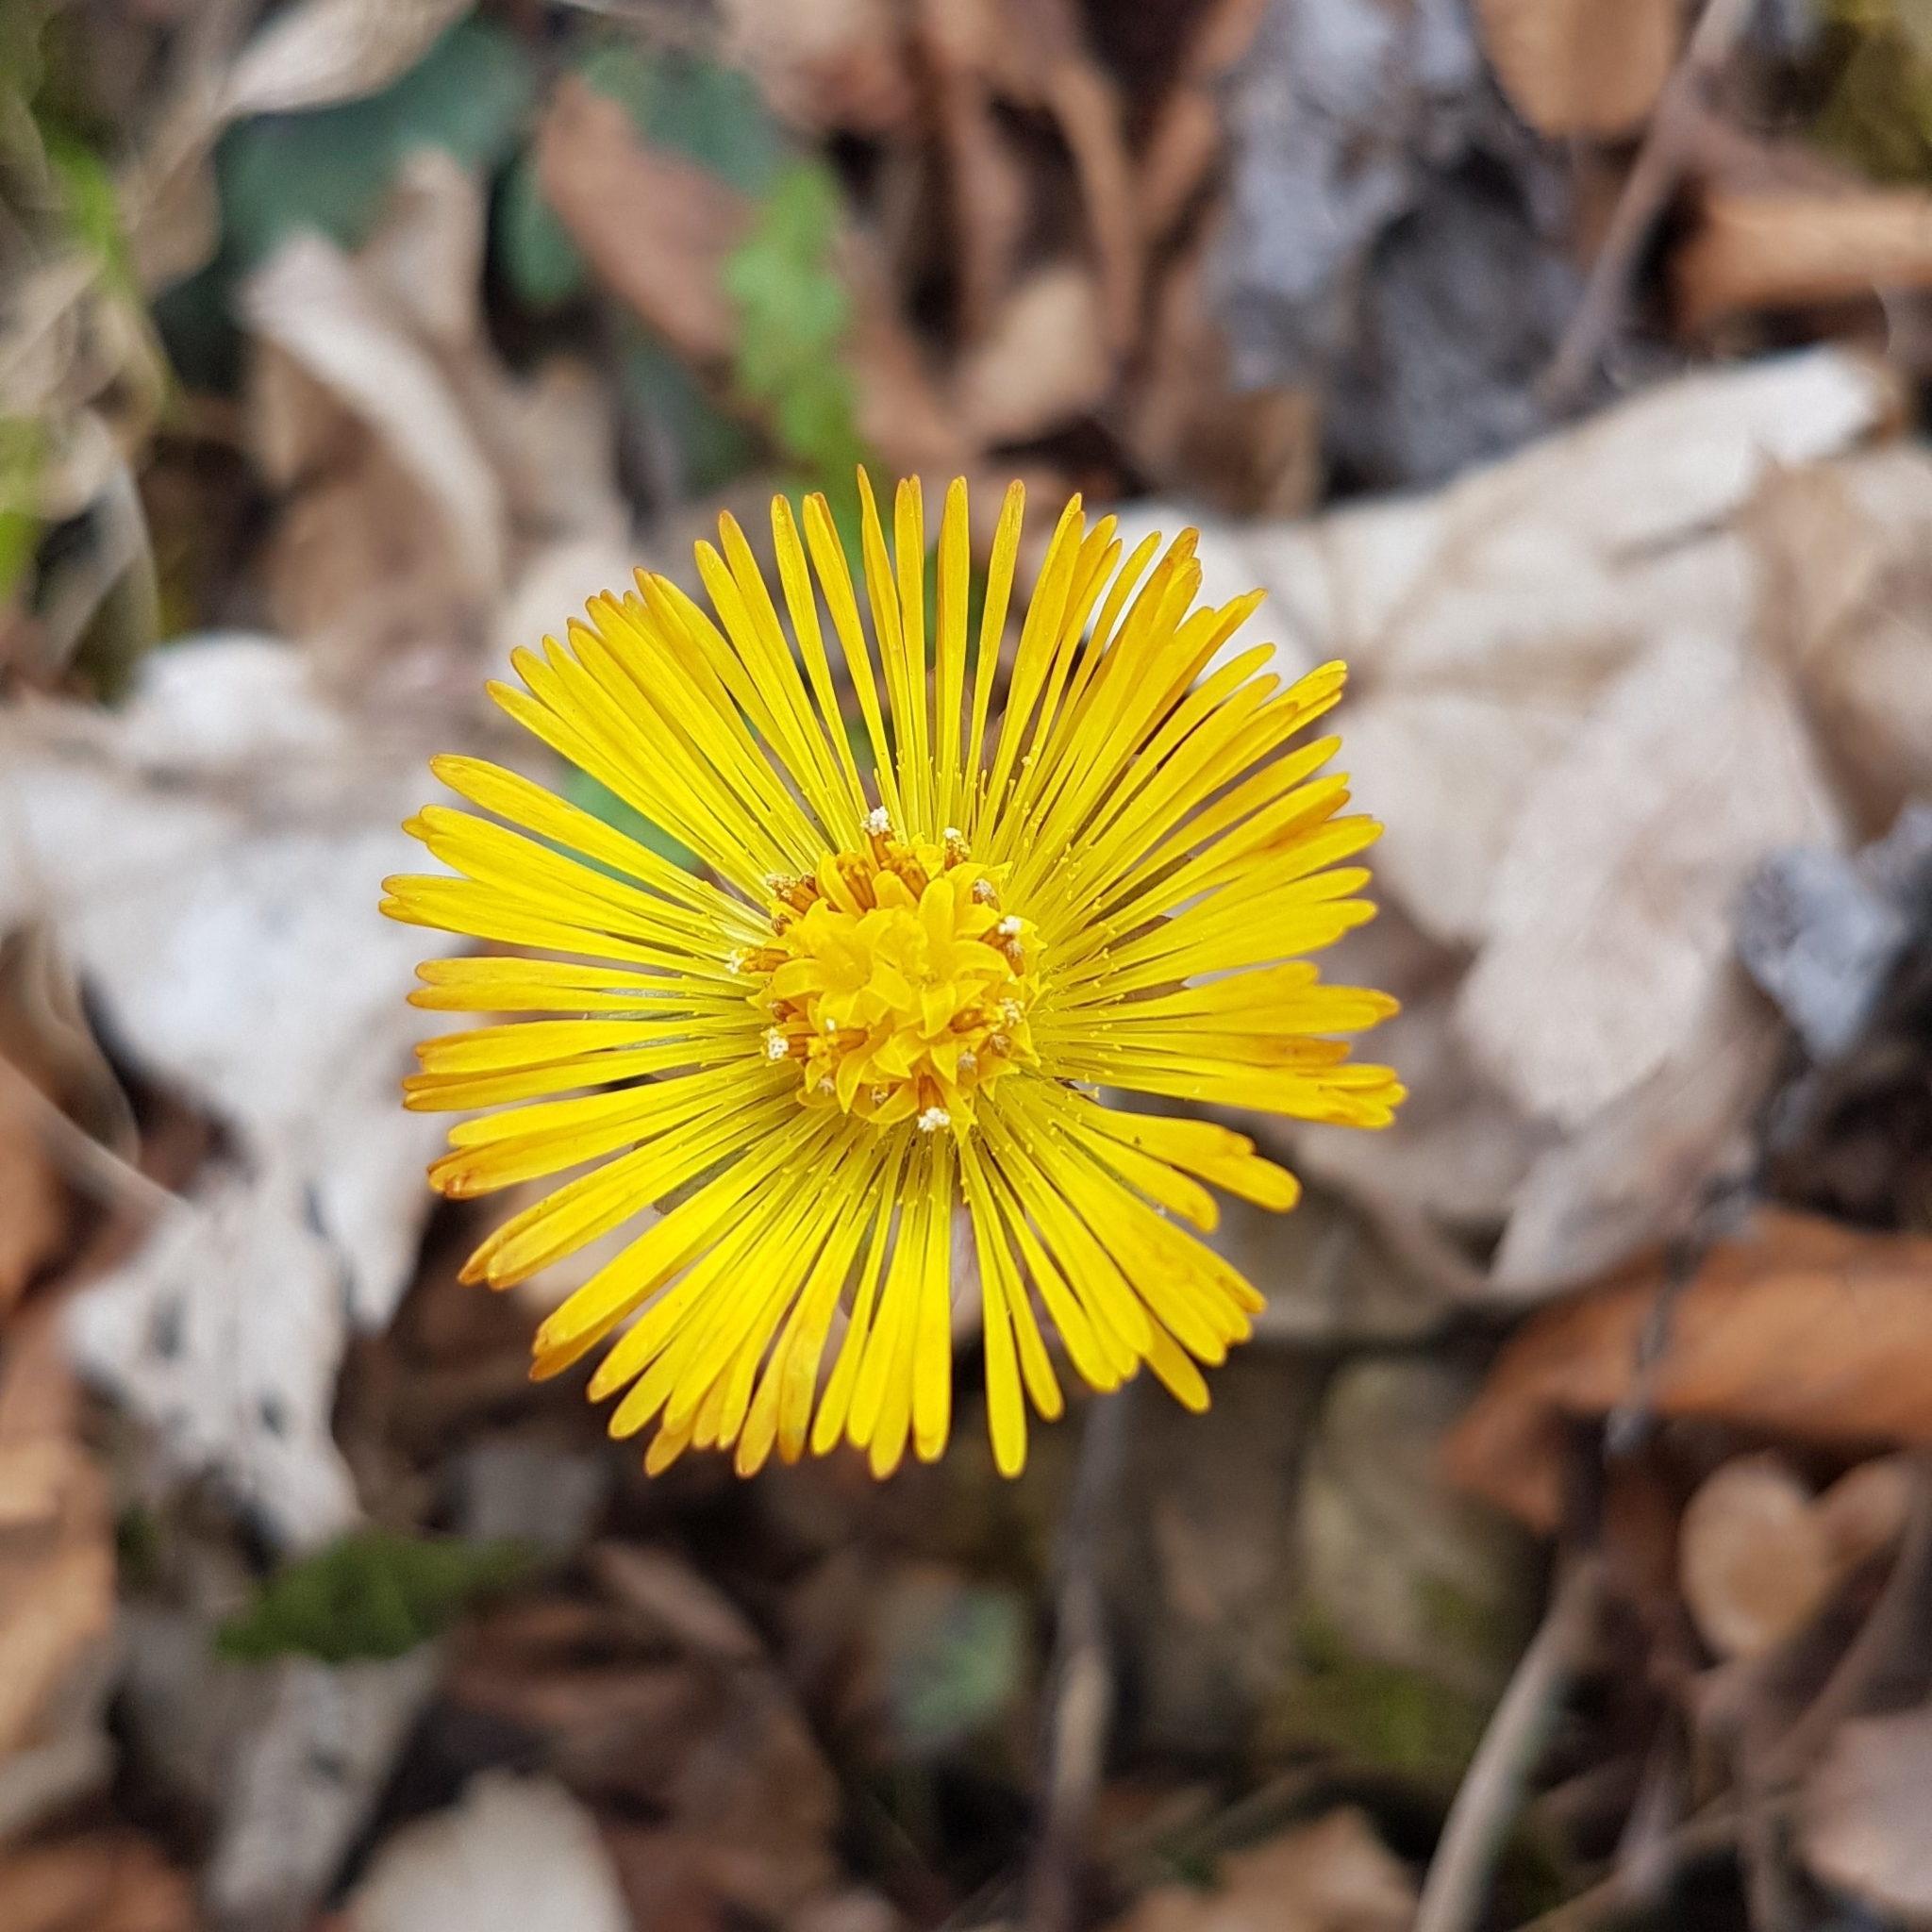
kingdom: Plantae
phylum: Tracheophyta
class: Magnoliopsida
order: Asterales
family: Asteraceae
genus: Tussilago
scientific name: Tussilago farfara
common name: Coltsfoot
